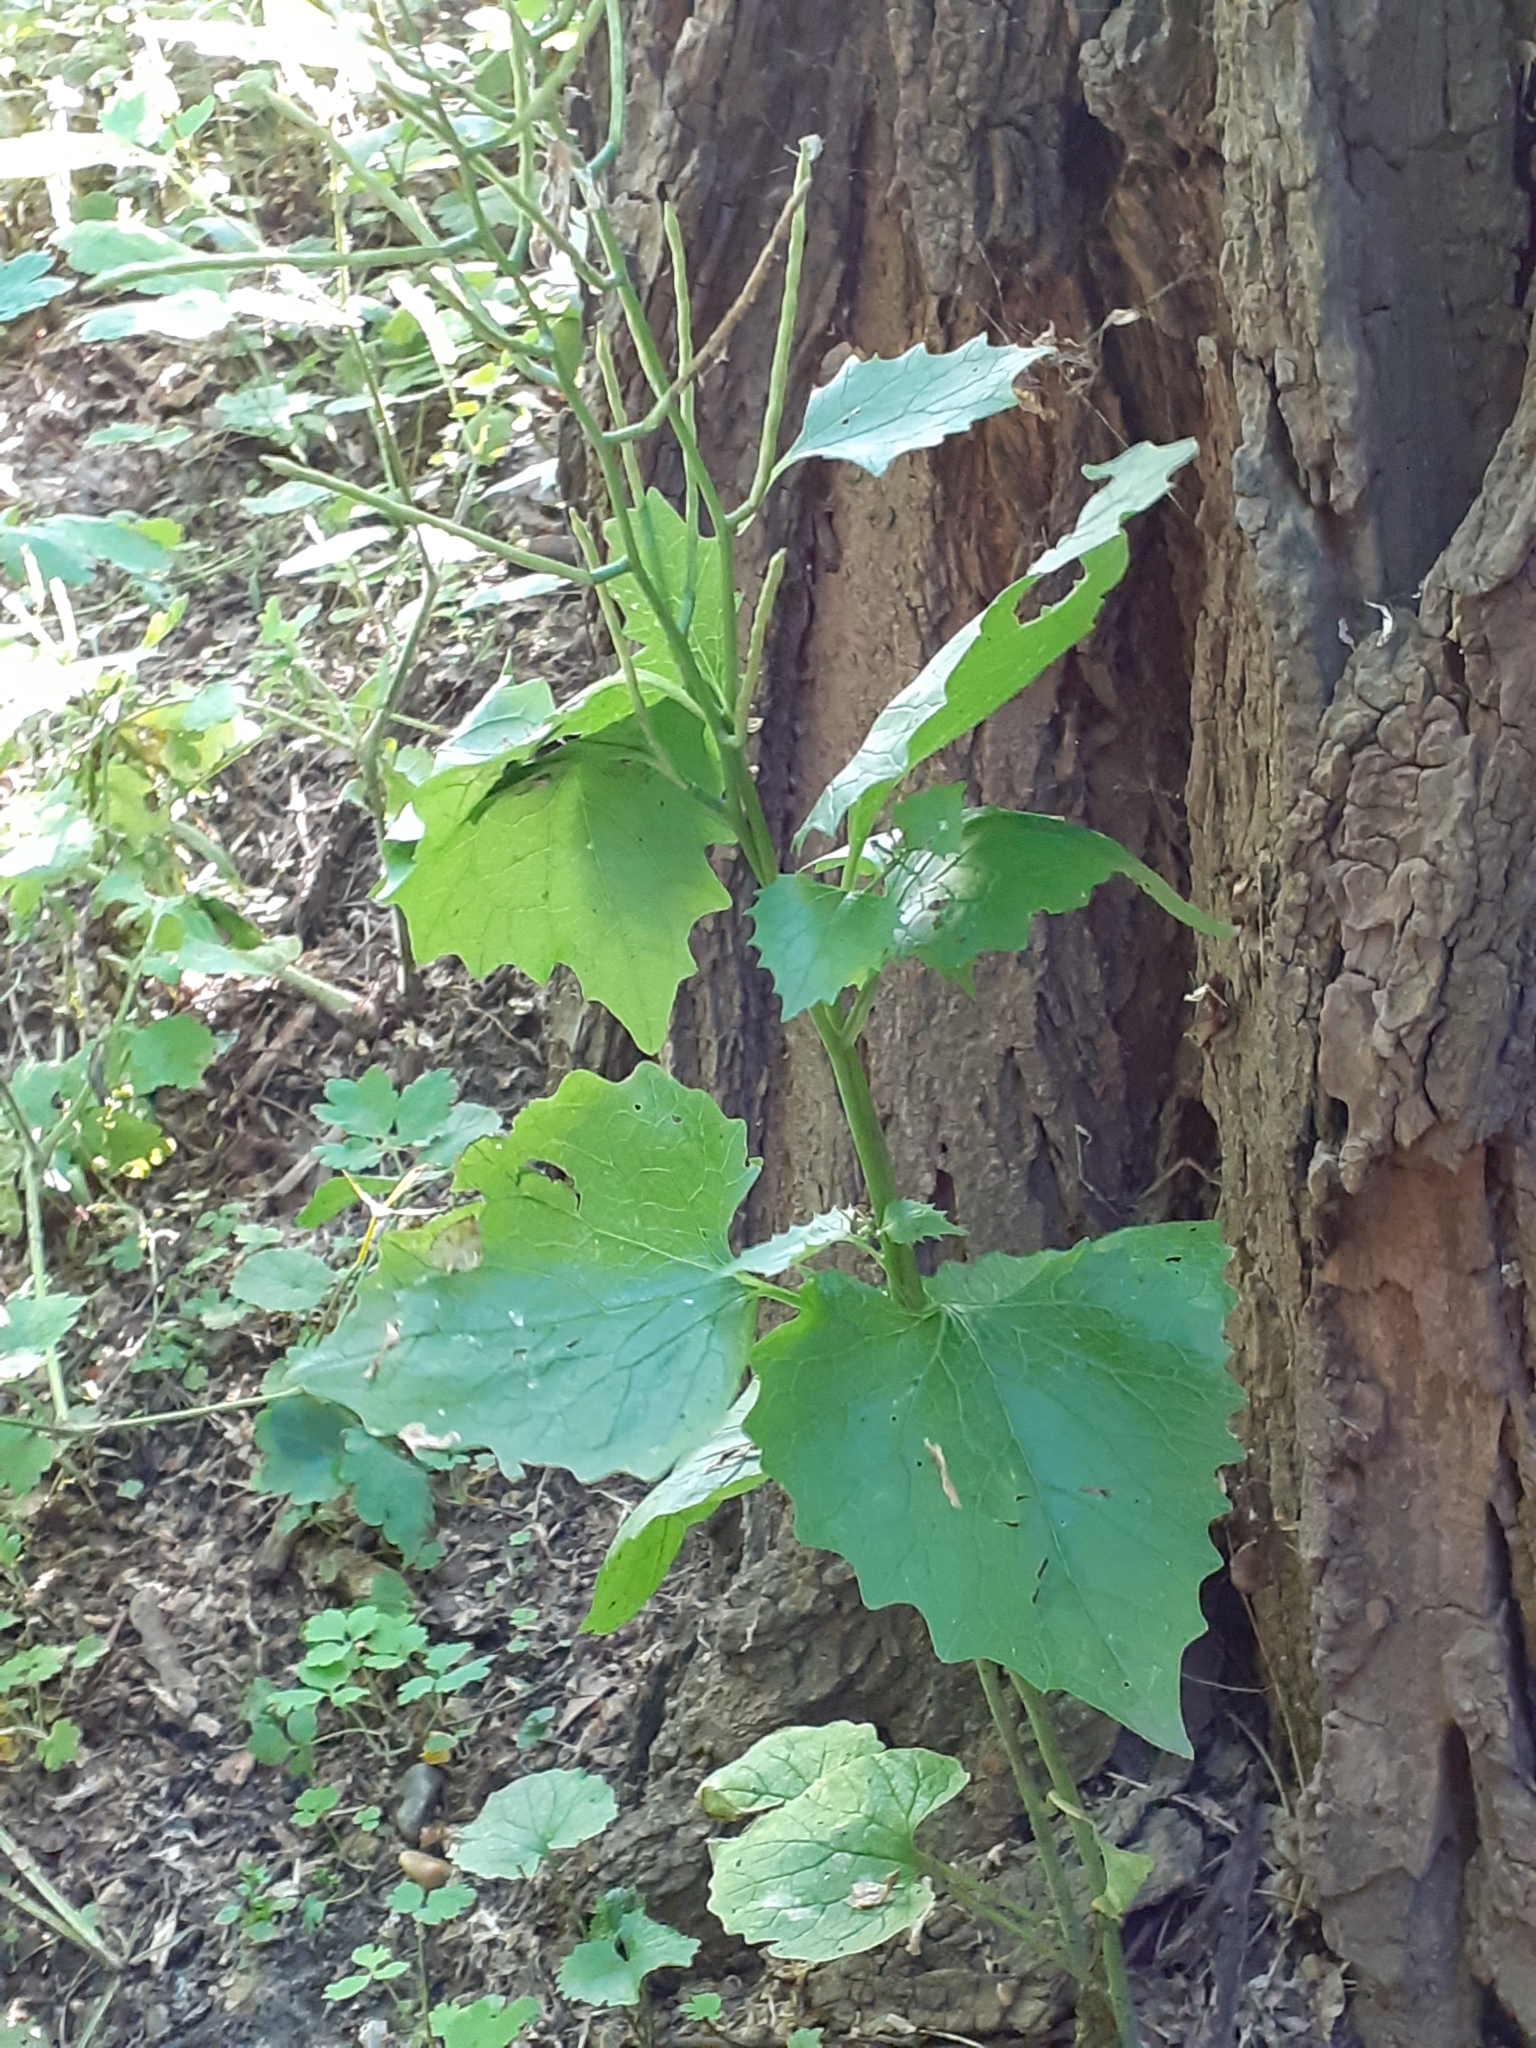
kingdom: Plantae
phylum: Tracheophyta
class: Magnoliopsida
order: Brassicales
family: Brassicaceae
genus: Alliaria
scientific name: Alliaria petiolata
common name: Garlic mustard
